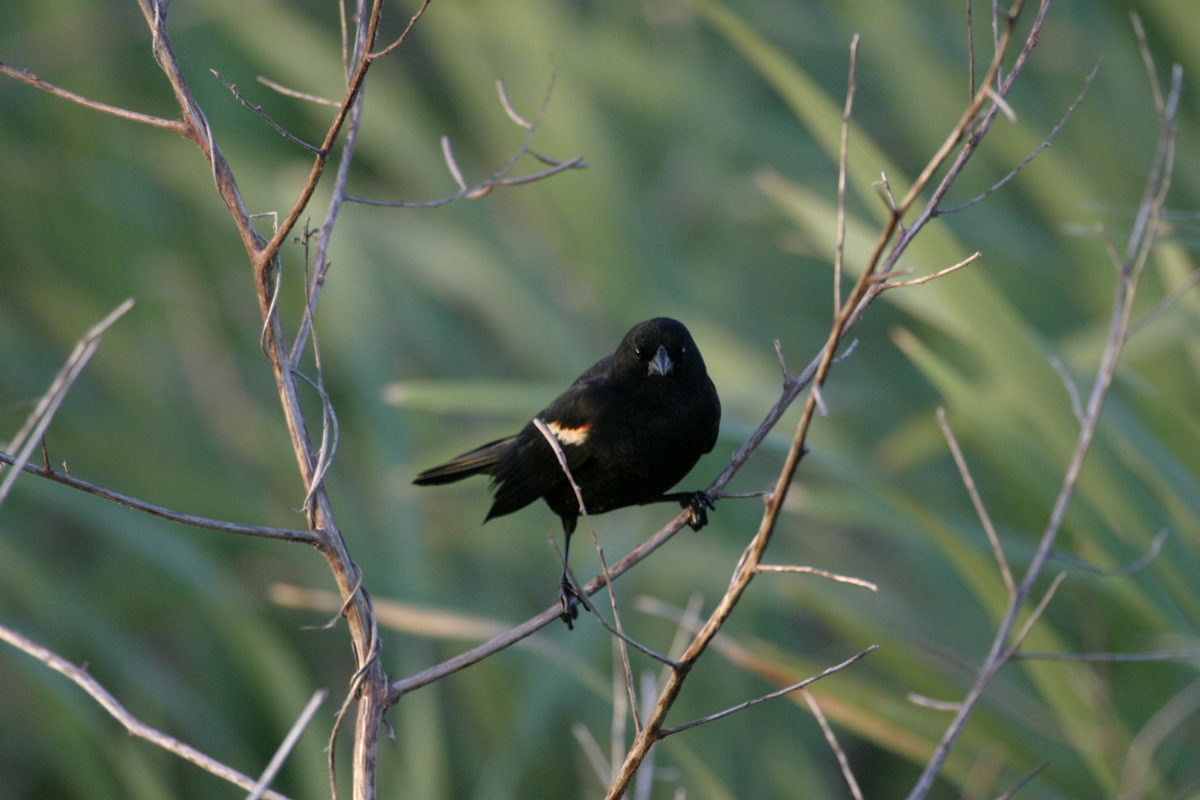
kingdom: Animalia
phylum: Chordata
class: Aves
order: Passeriformes
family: Icteridae
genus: Agelaius
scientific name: Agelaius phoeniceus
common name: Red-winged blackbird
